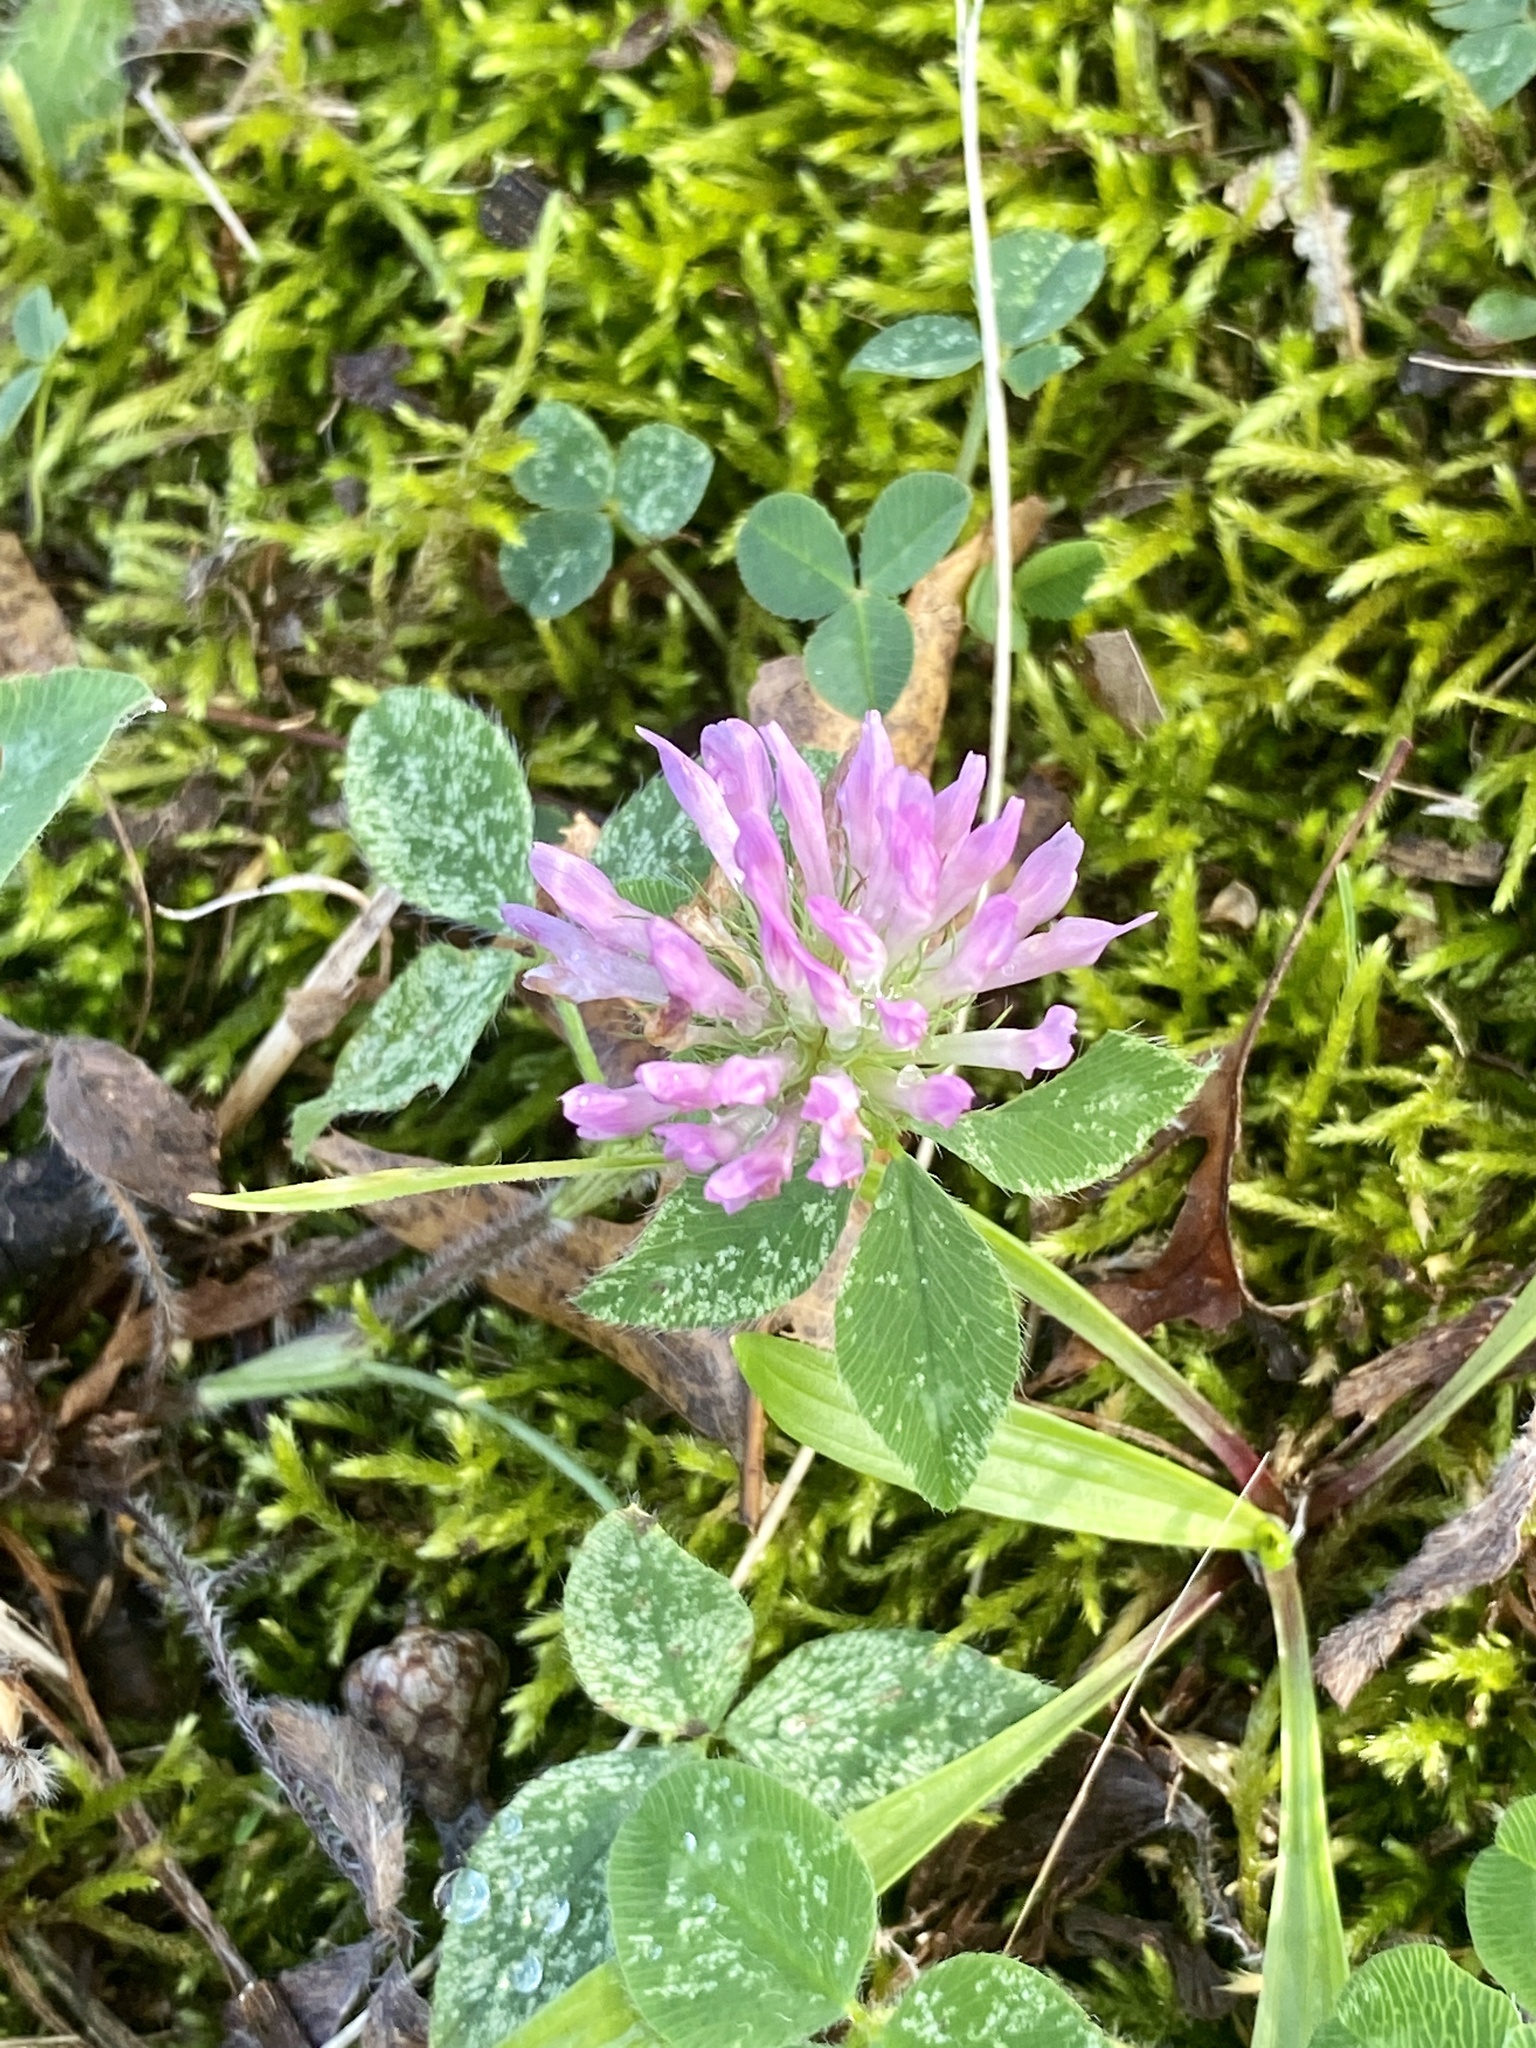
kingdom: Plantae
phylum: Tracheophyta
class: Magnoliopsida
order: Fabales
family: Fabaceae
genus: Trifolium
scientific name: Trifolium pratense
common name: Red clover
